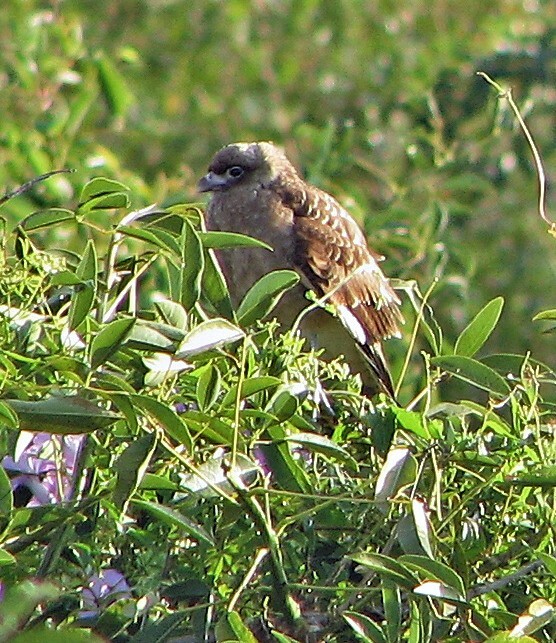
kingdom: Animalia
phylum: Chordata
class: Aves
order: Falconiformes
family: Falconidae
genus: Daptrius
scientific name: Daptrius
